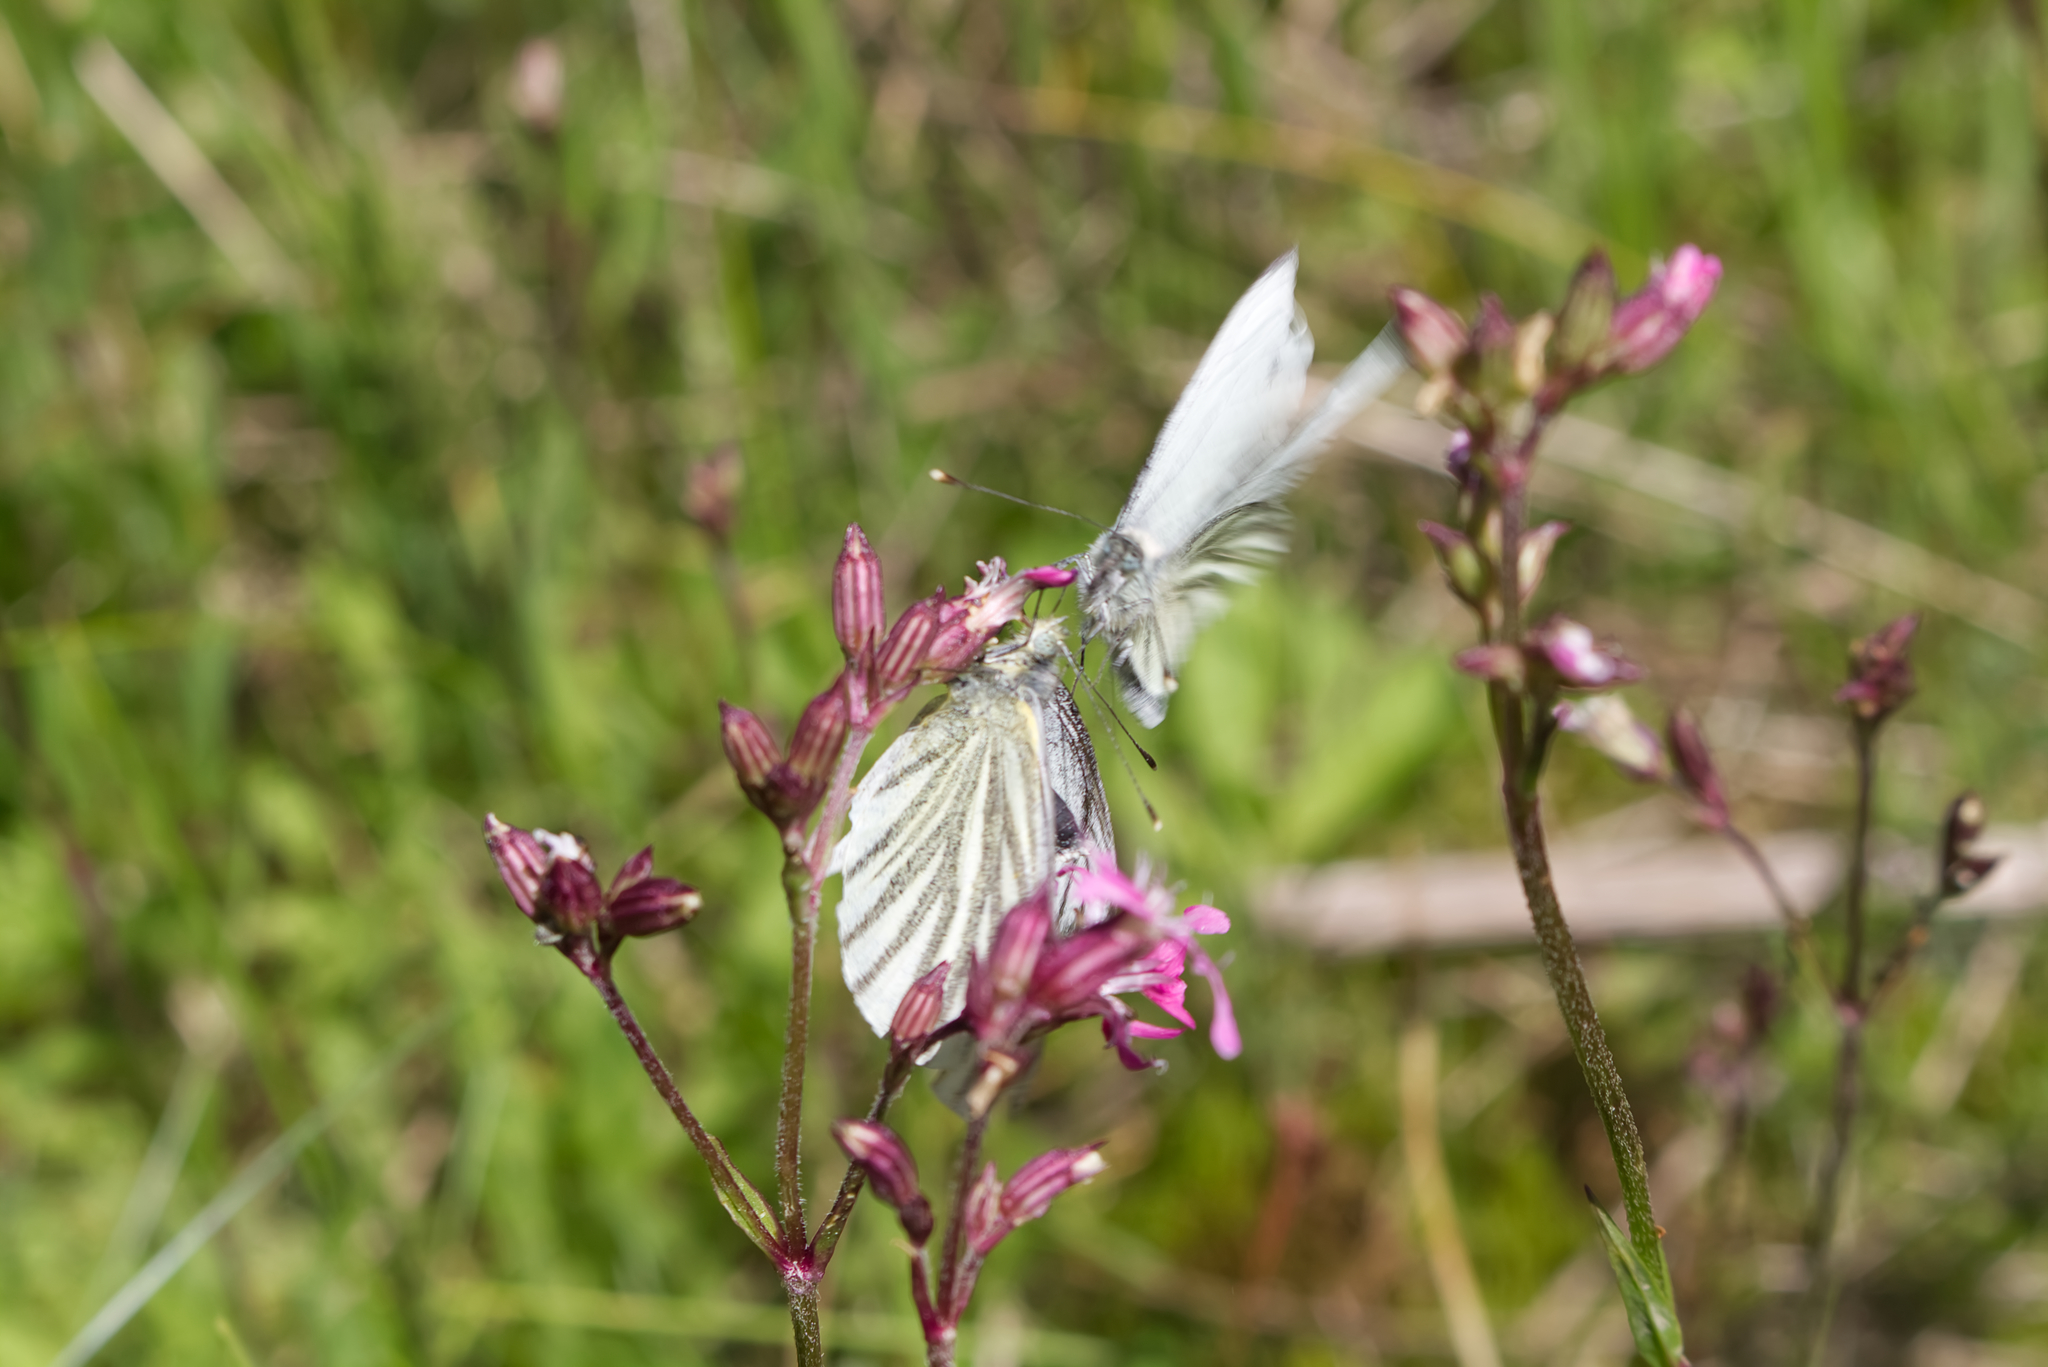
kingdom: Animalia
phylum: Arthropoda
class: Insecta
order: Lepidoptera
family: Pieridae
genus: Pieris
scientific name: Pieris napi
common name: Green-veined white
